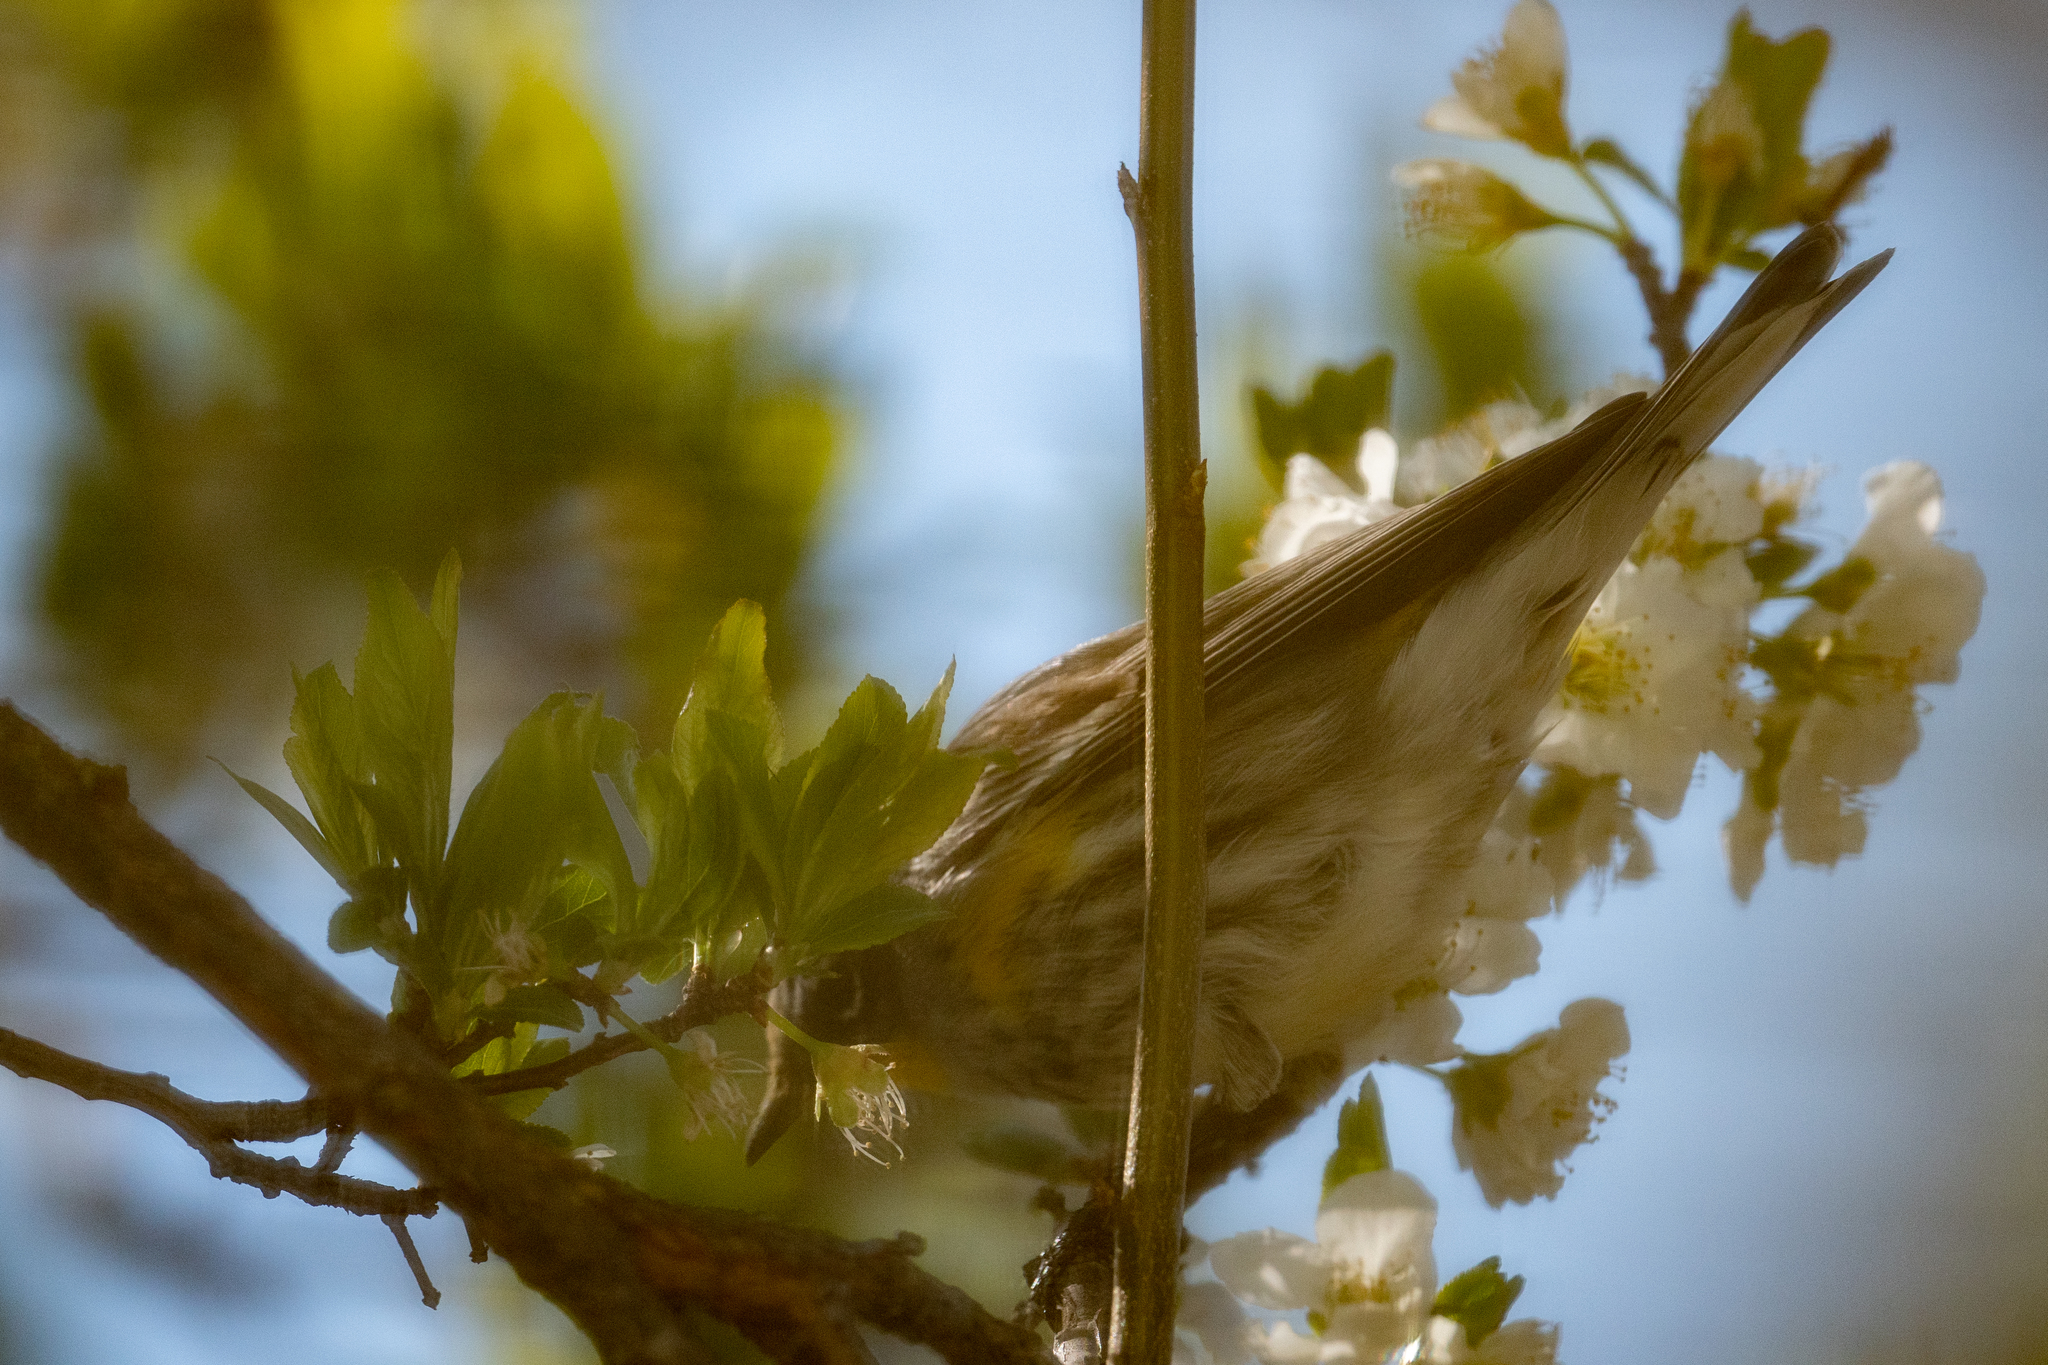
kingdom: Animalia
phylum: Chordata
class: Aves
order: Passeriformes
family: Parulidae
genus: Setophaga
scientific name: Setophaga coronata
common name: Myrtle warbler
